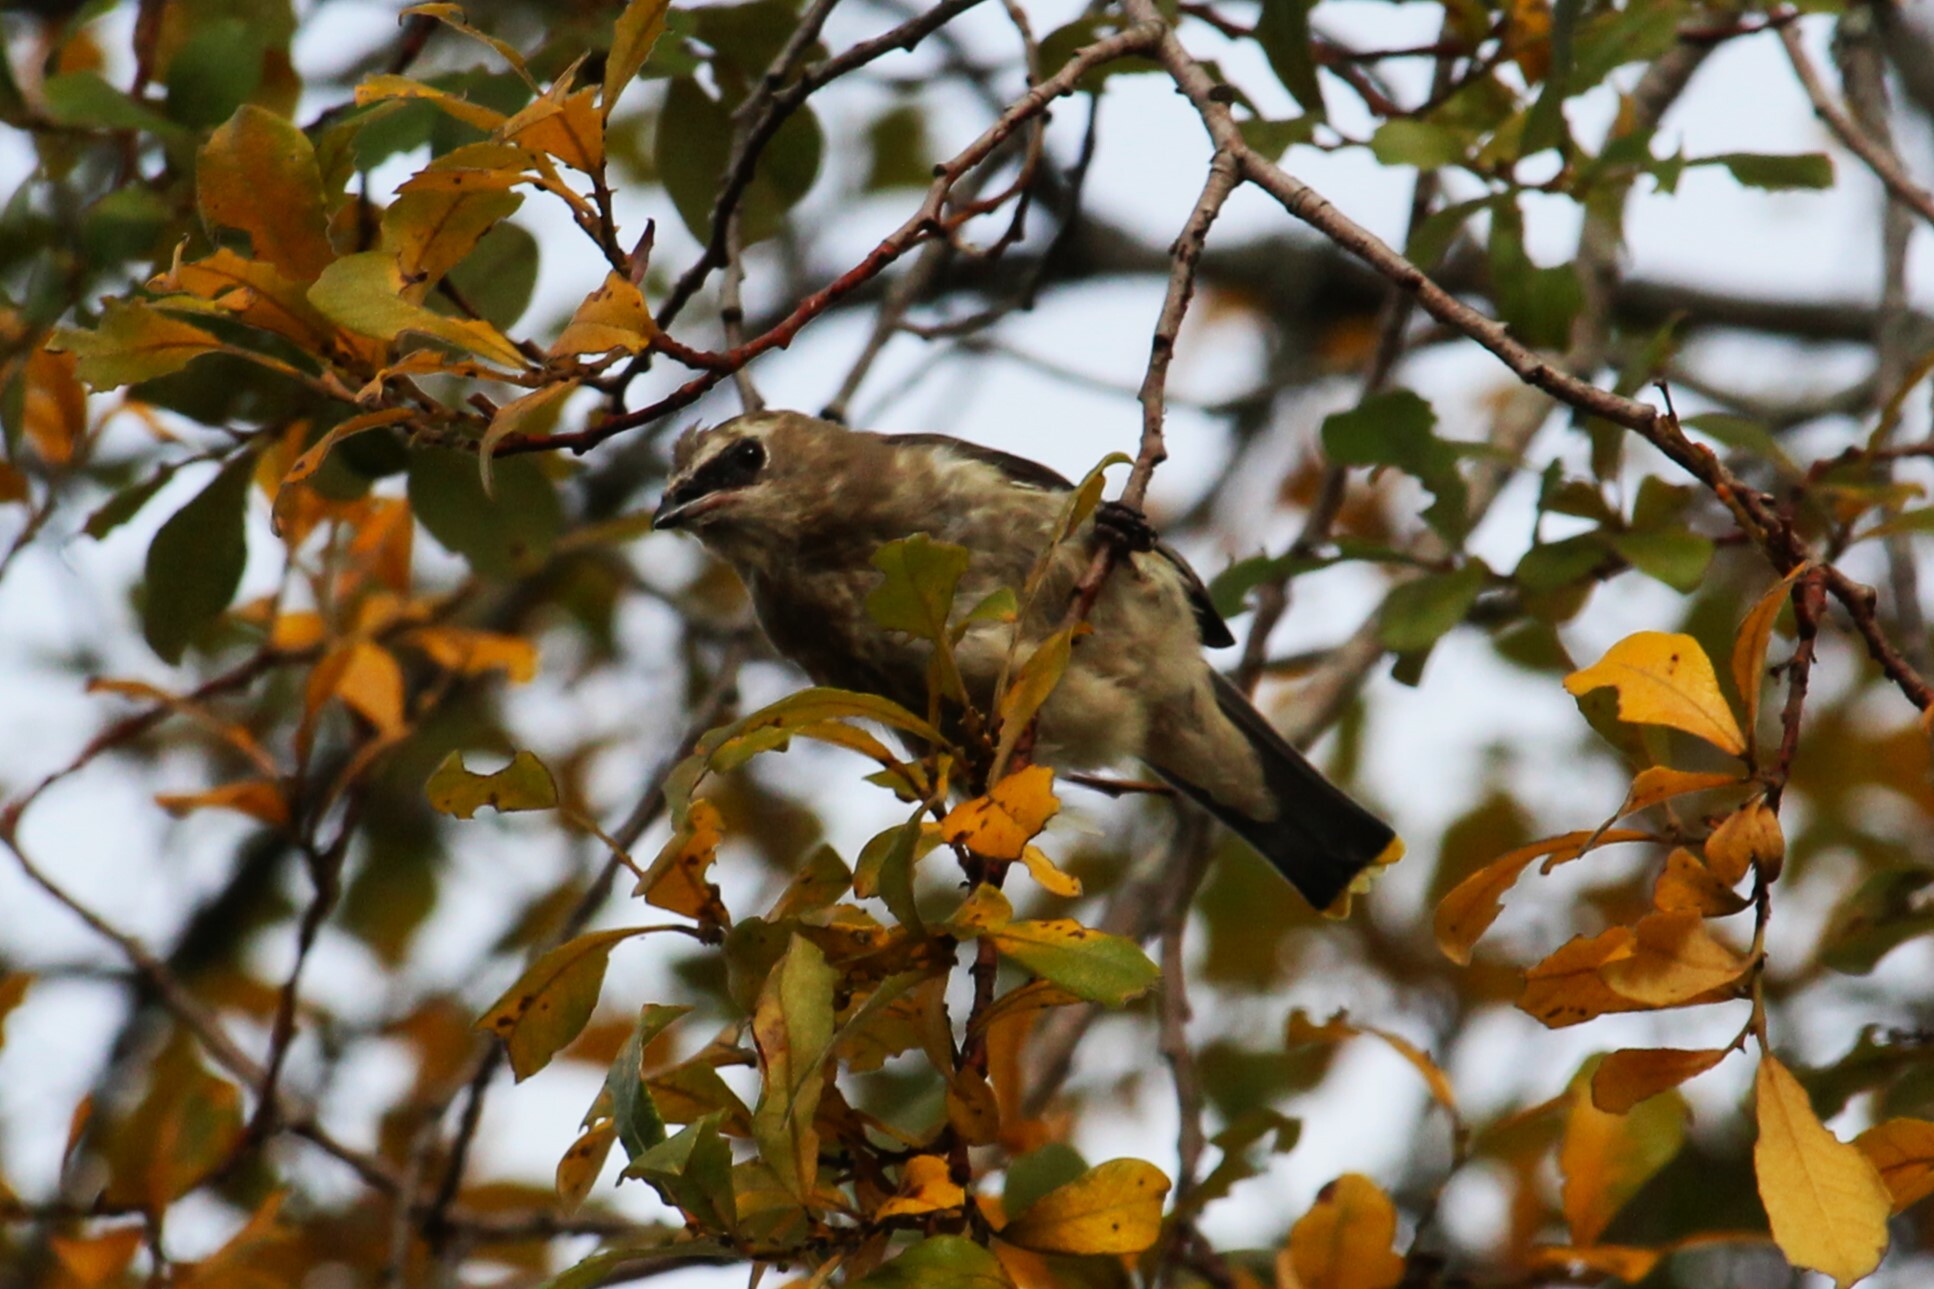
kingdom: Animalia
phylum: Chordata
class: Aves
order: Passeriformes
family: Bombycillidae
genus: Bombycilla
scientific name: Bombycilla cedrorum
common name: Cedar waxwing
